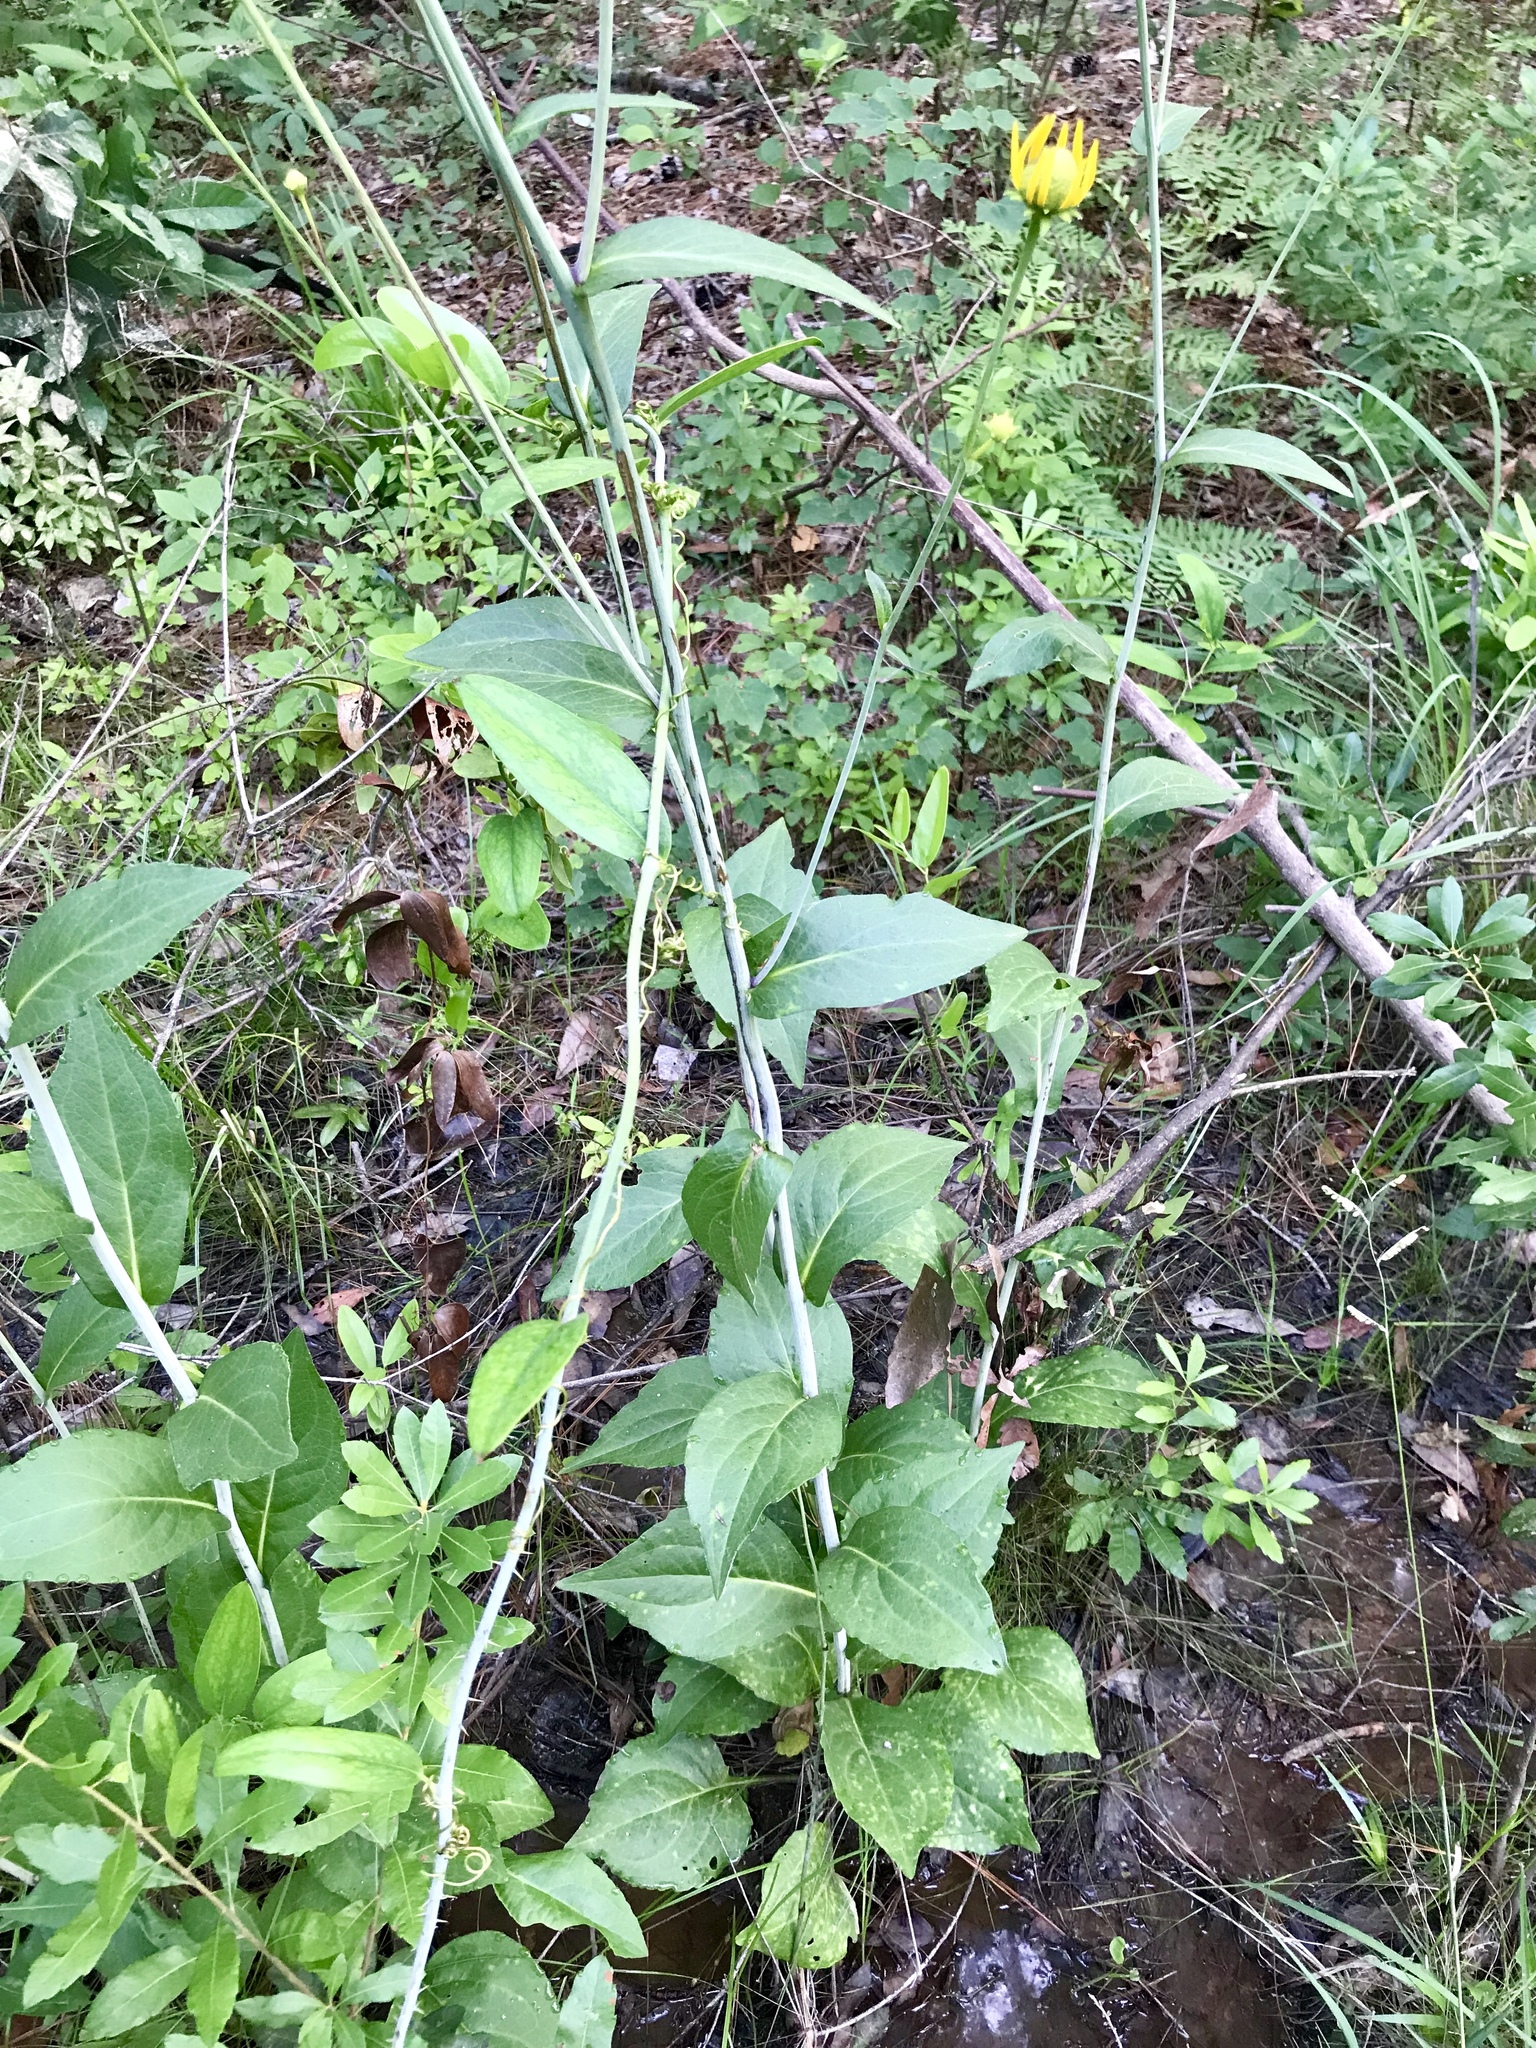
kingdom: Plantae
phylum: Tracheophyta
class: Magnoliopsida
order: Asterales
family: Asteraceae
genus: Rudbeckia
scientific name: Rudbeckia scabrifolia
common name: Rough-leaf coneflower
